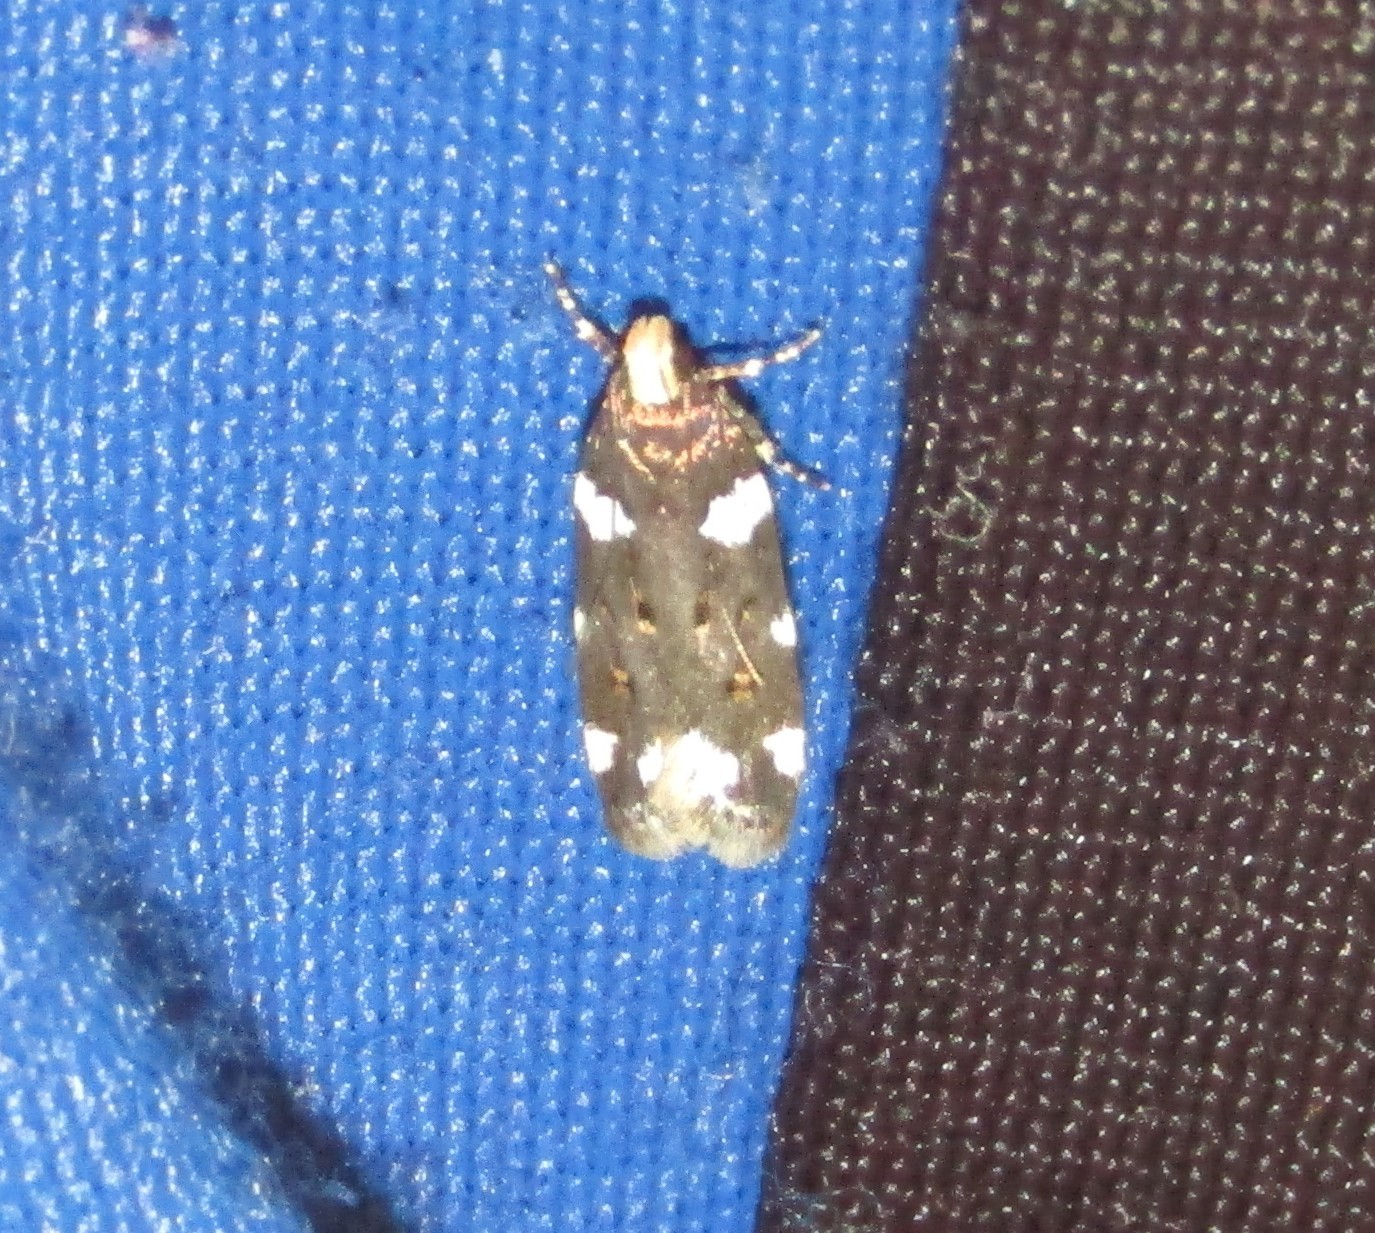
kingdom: Animalia
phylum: Arthropoda
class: Insecta
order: Lepidoptera
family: Gelechiidae
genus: Fascista
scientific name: Fascista cercerisella
